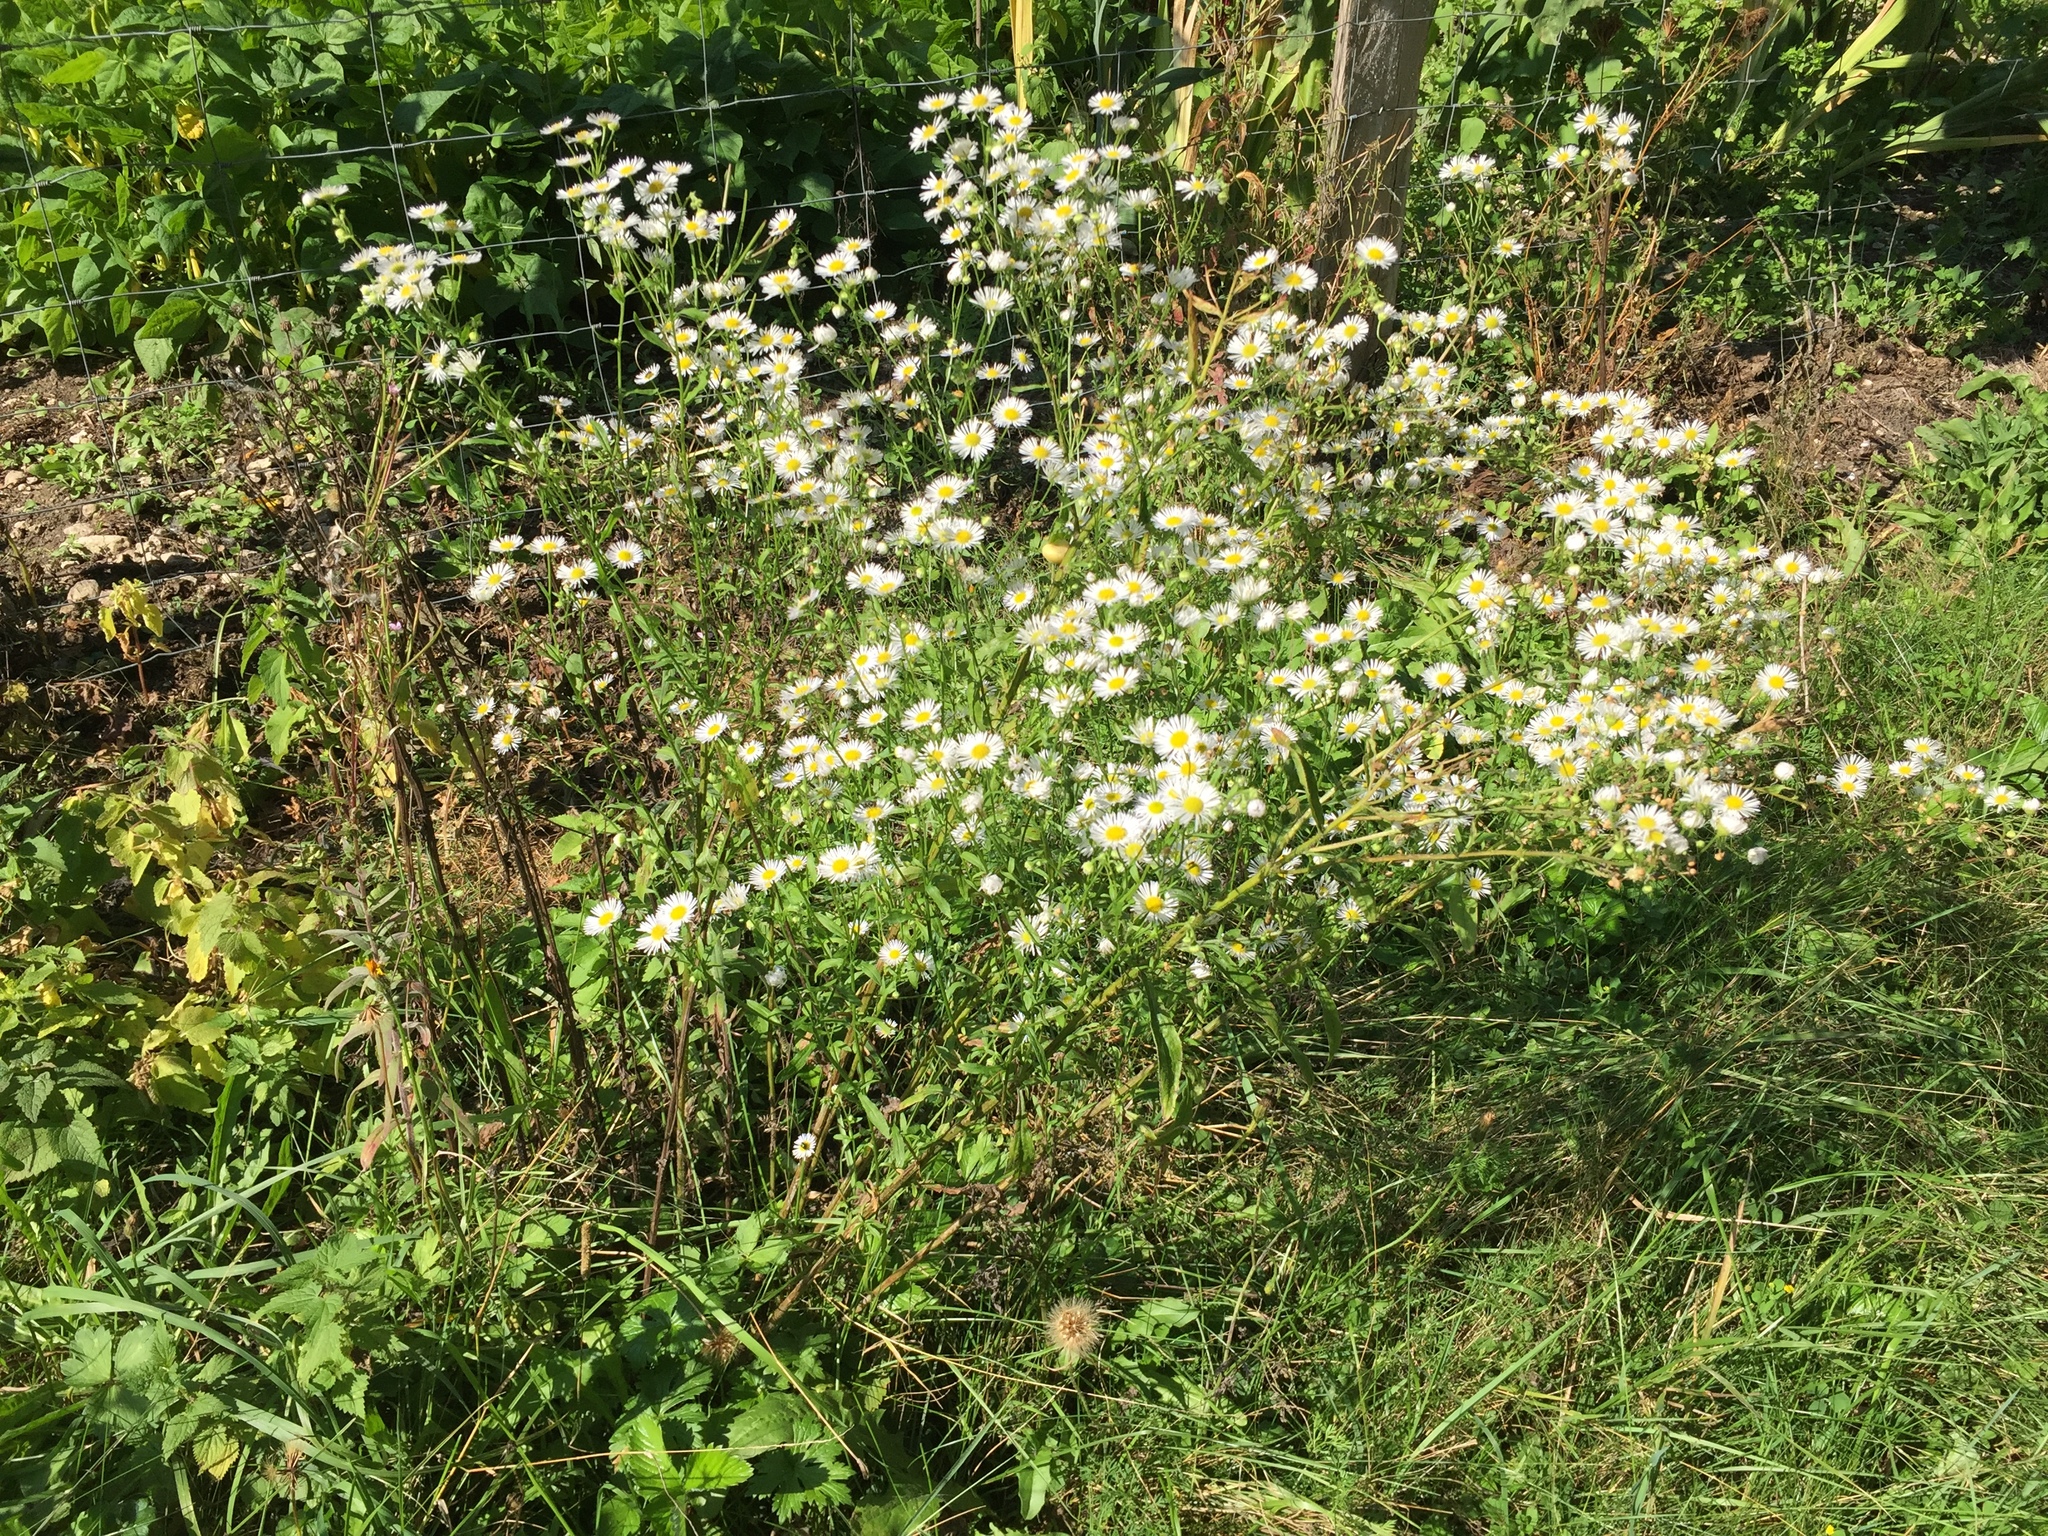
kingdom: Plantae
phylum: Tracheophyta
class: Magnoliopsida
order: Asterales
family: Asteraceae
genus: Erigeron
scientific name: Erigeron annuus
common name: Tall fleabane
